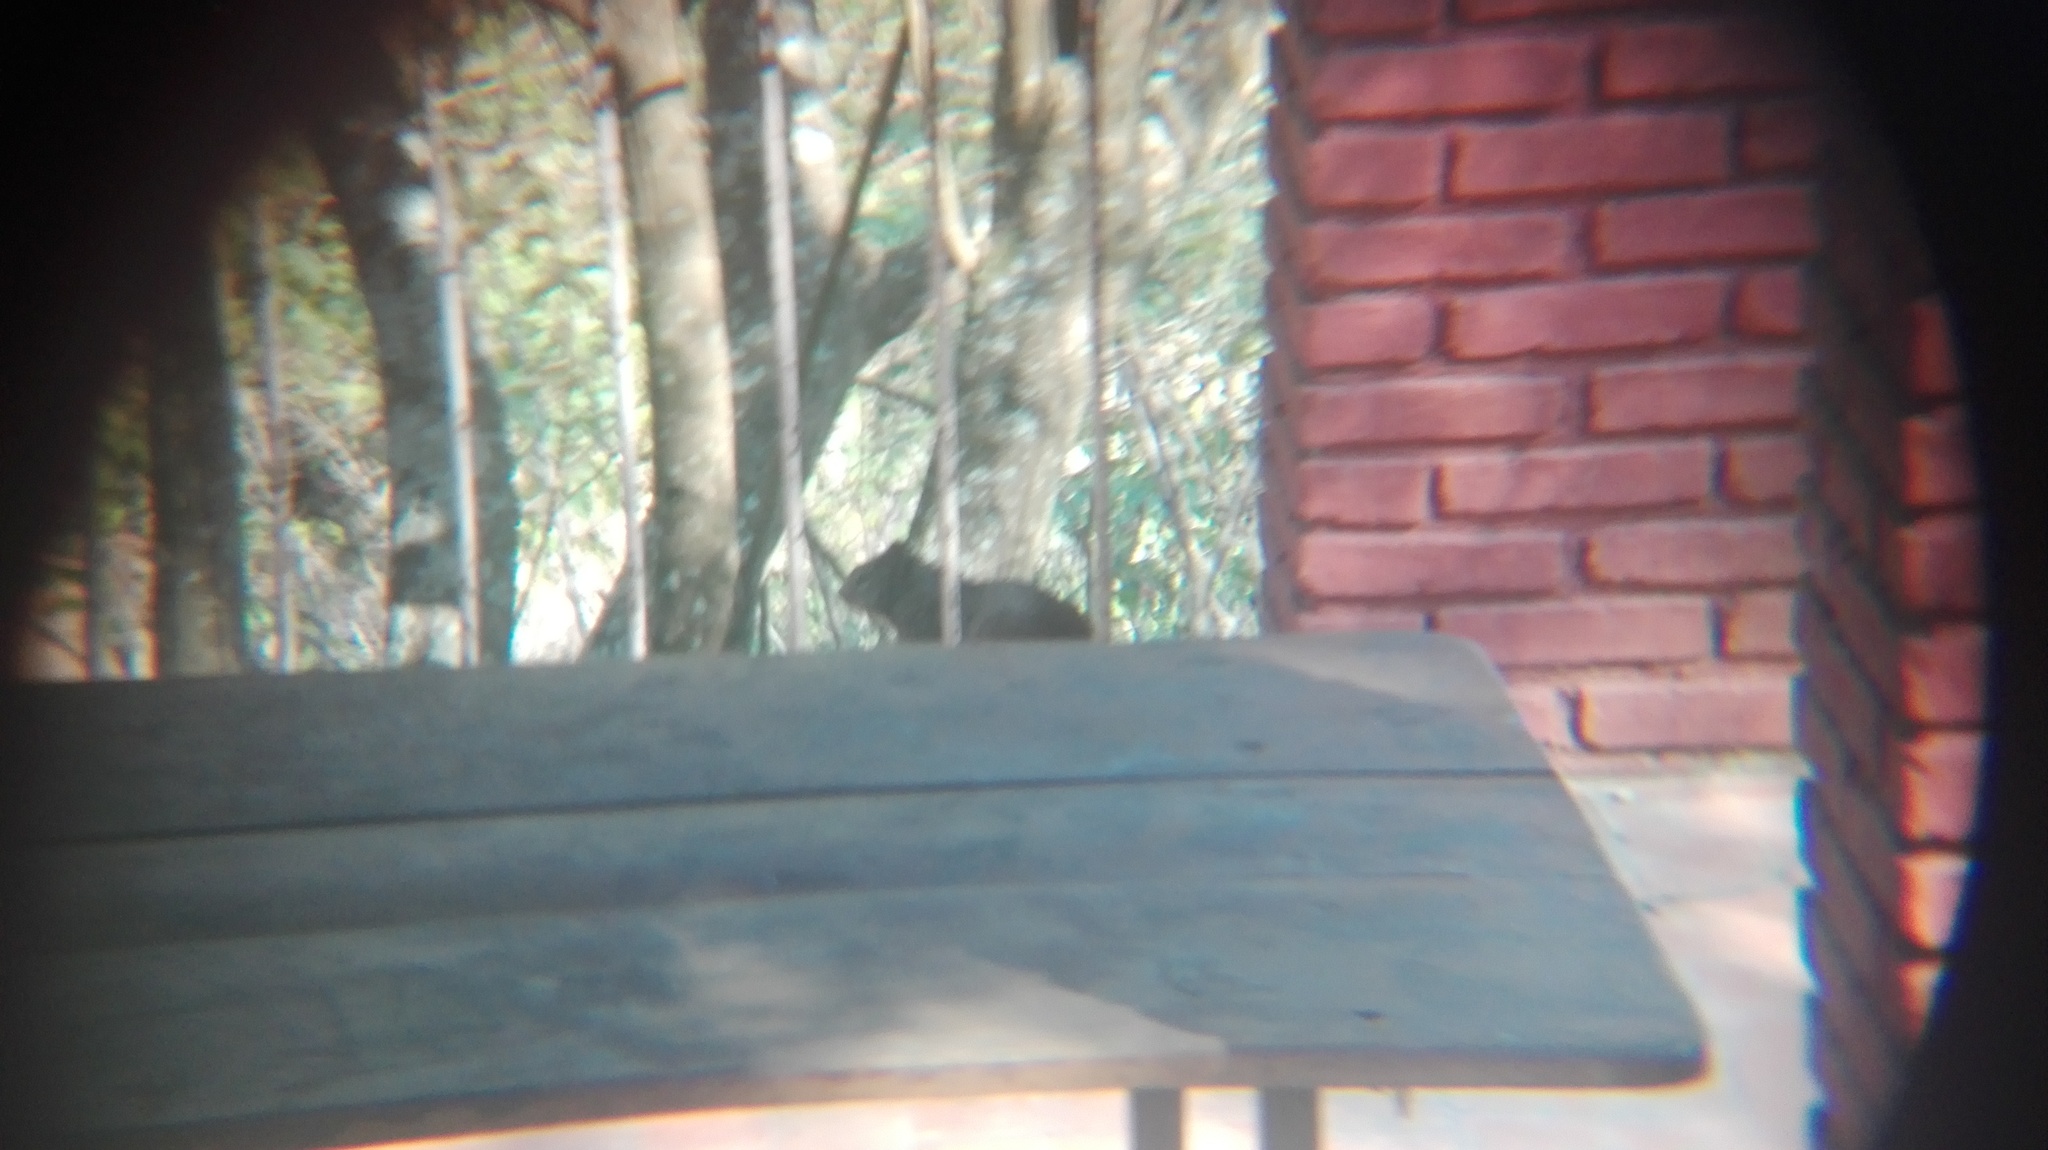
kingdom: Animalia
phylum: Chordata
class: Mammalia
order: Rodentia
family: Sciuridae
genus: Otospermophilus
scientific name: Otospermophilus variegatus
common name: Rock squirrel
